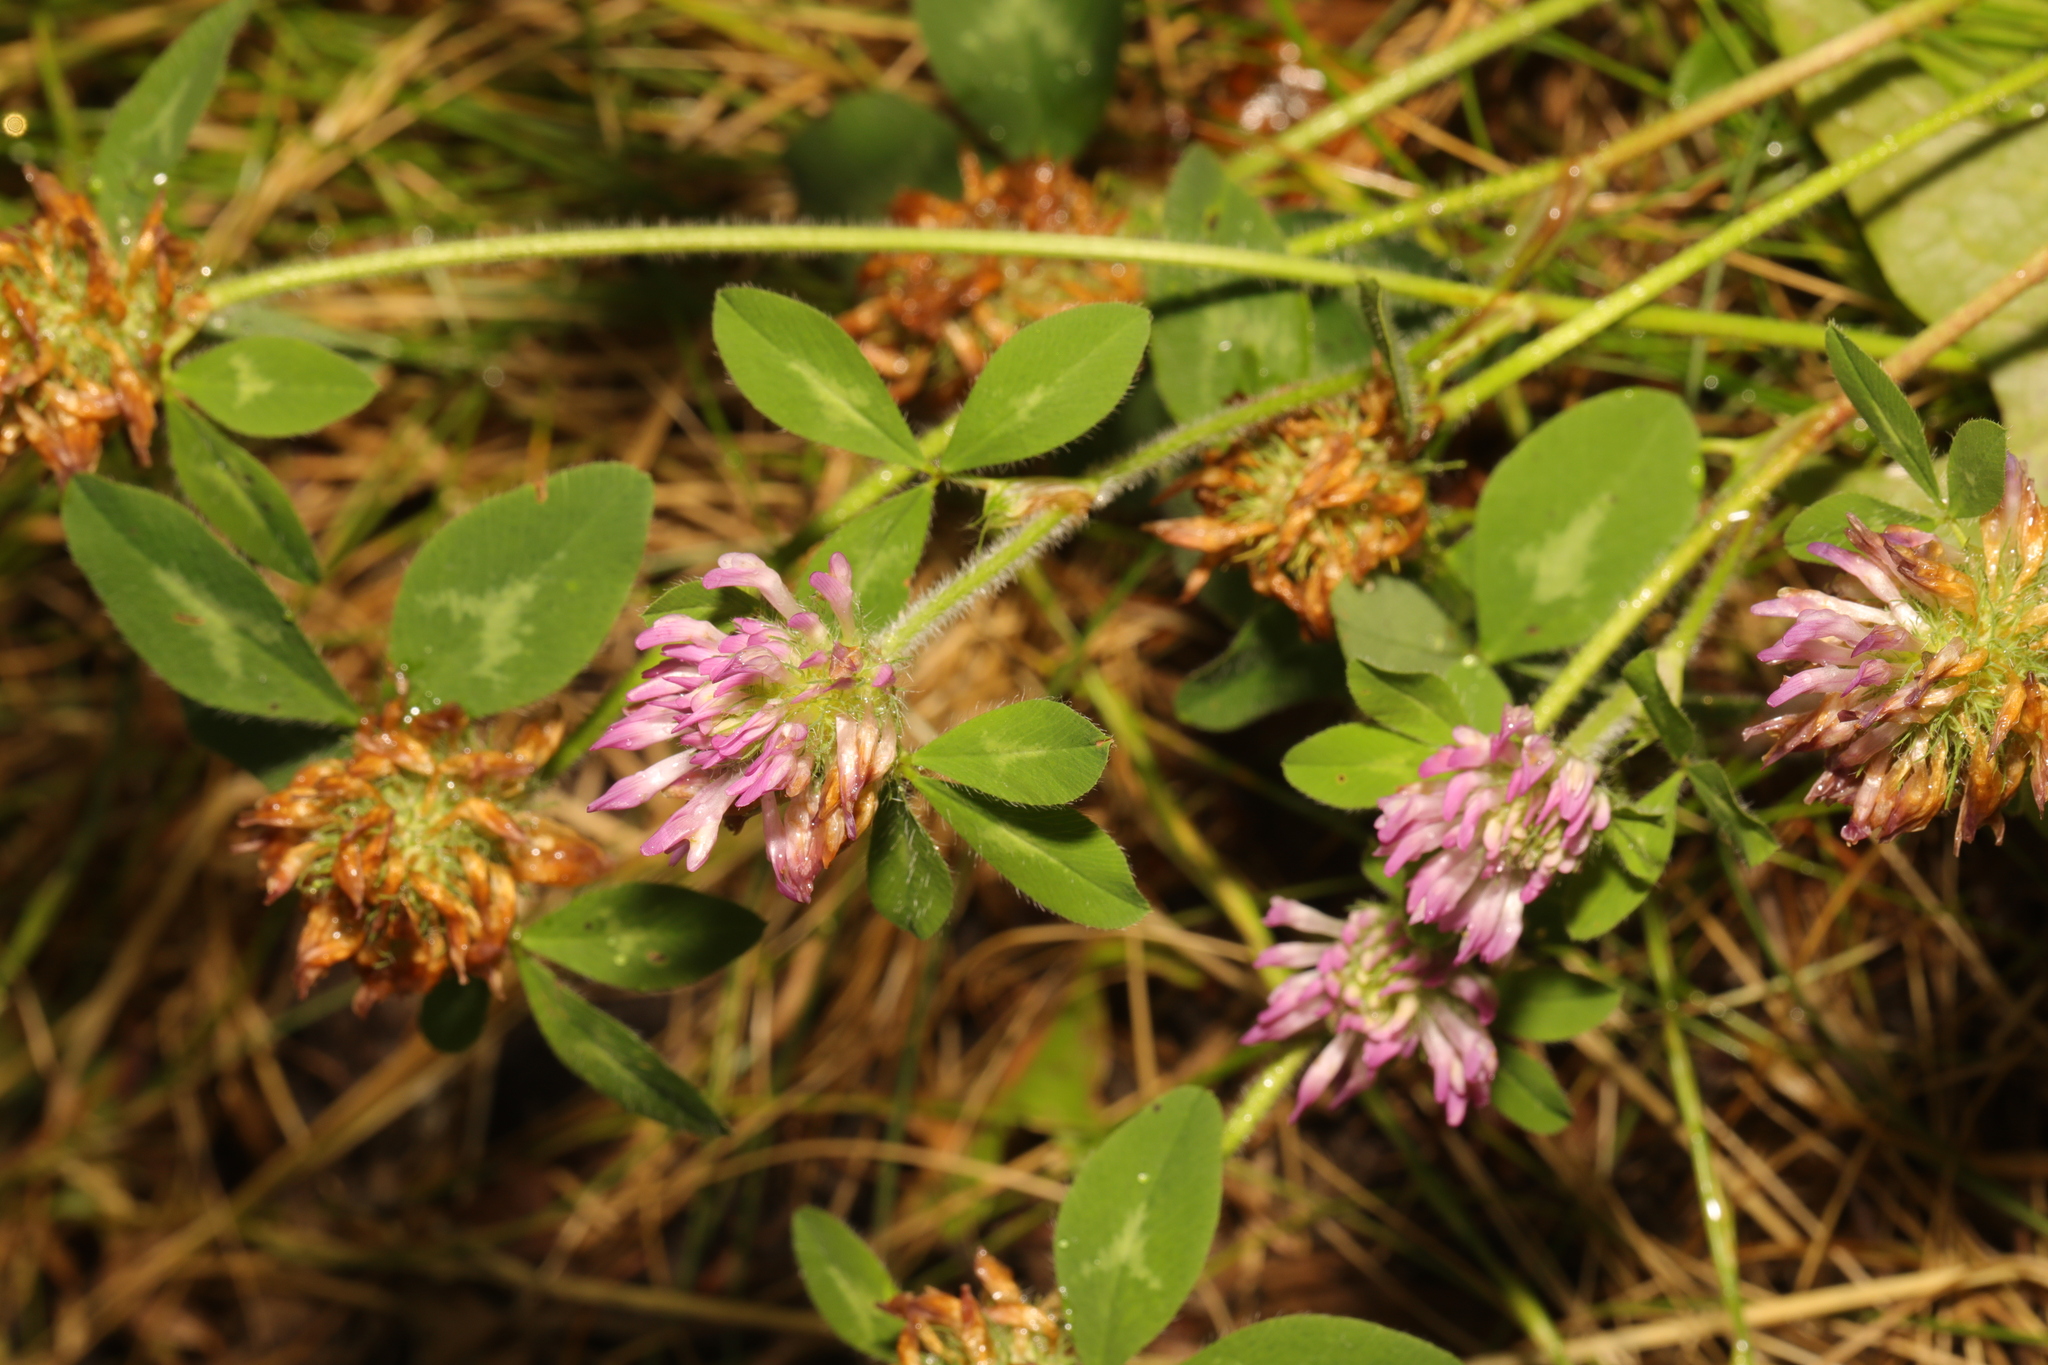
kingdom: Plantae
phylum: Tracheophyta
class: Magnoliopsida
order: Fabales
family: Fabaceae
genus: Trifolium
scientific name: Trifolium pratense
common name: Red clover
